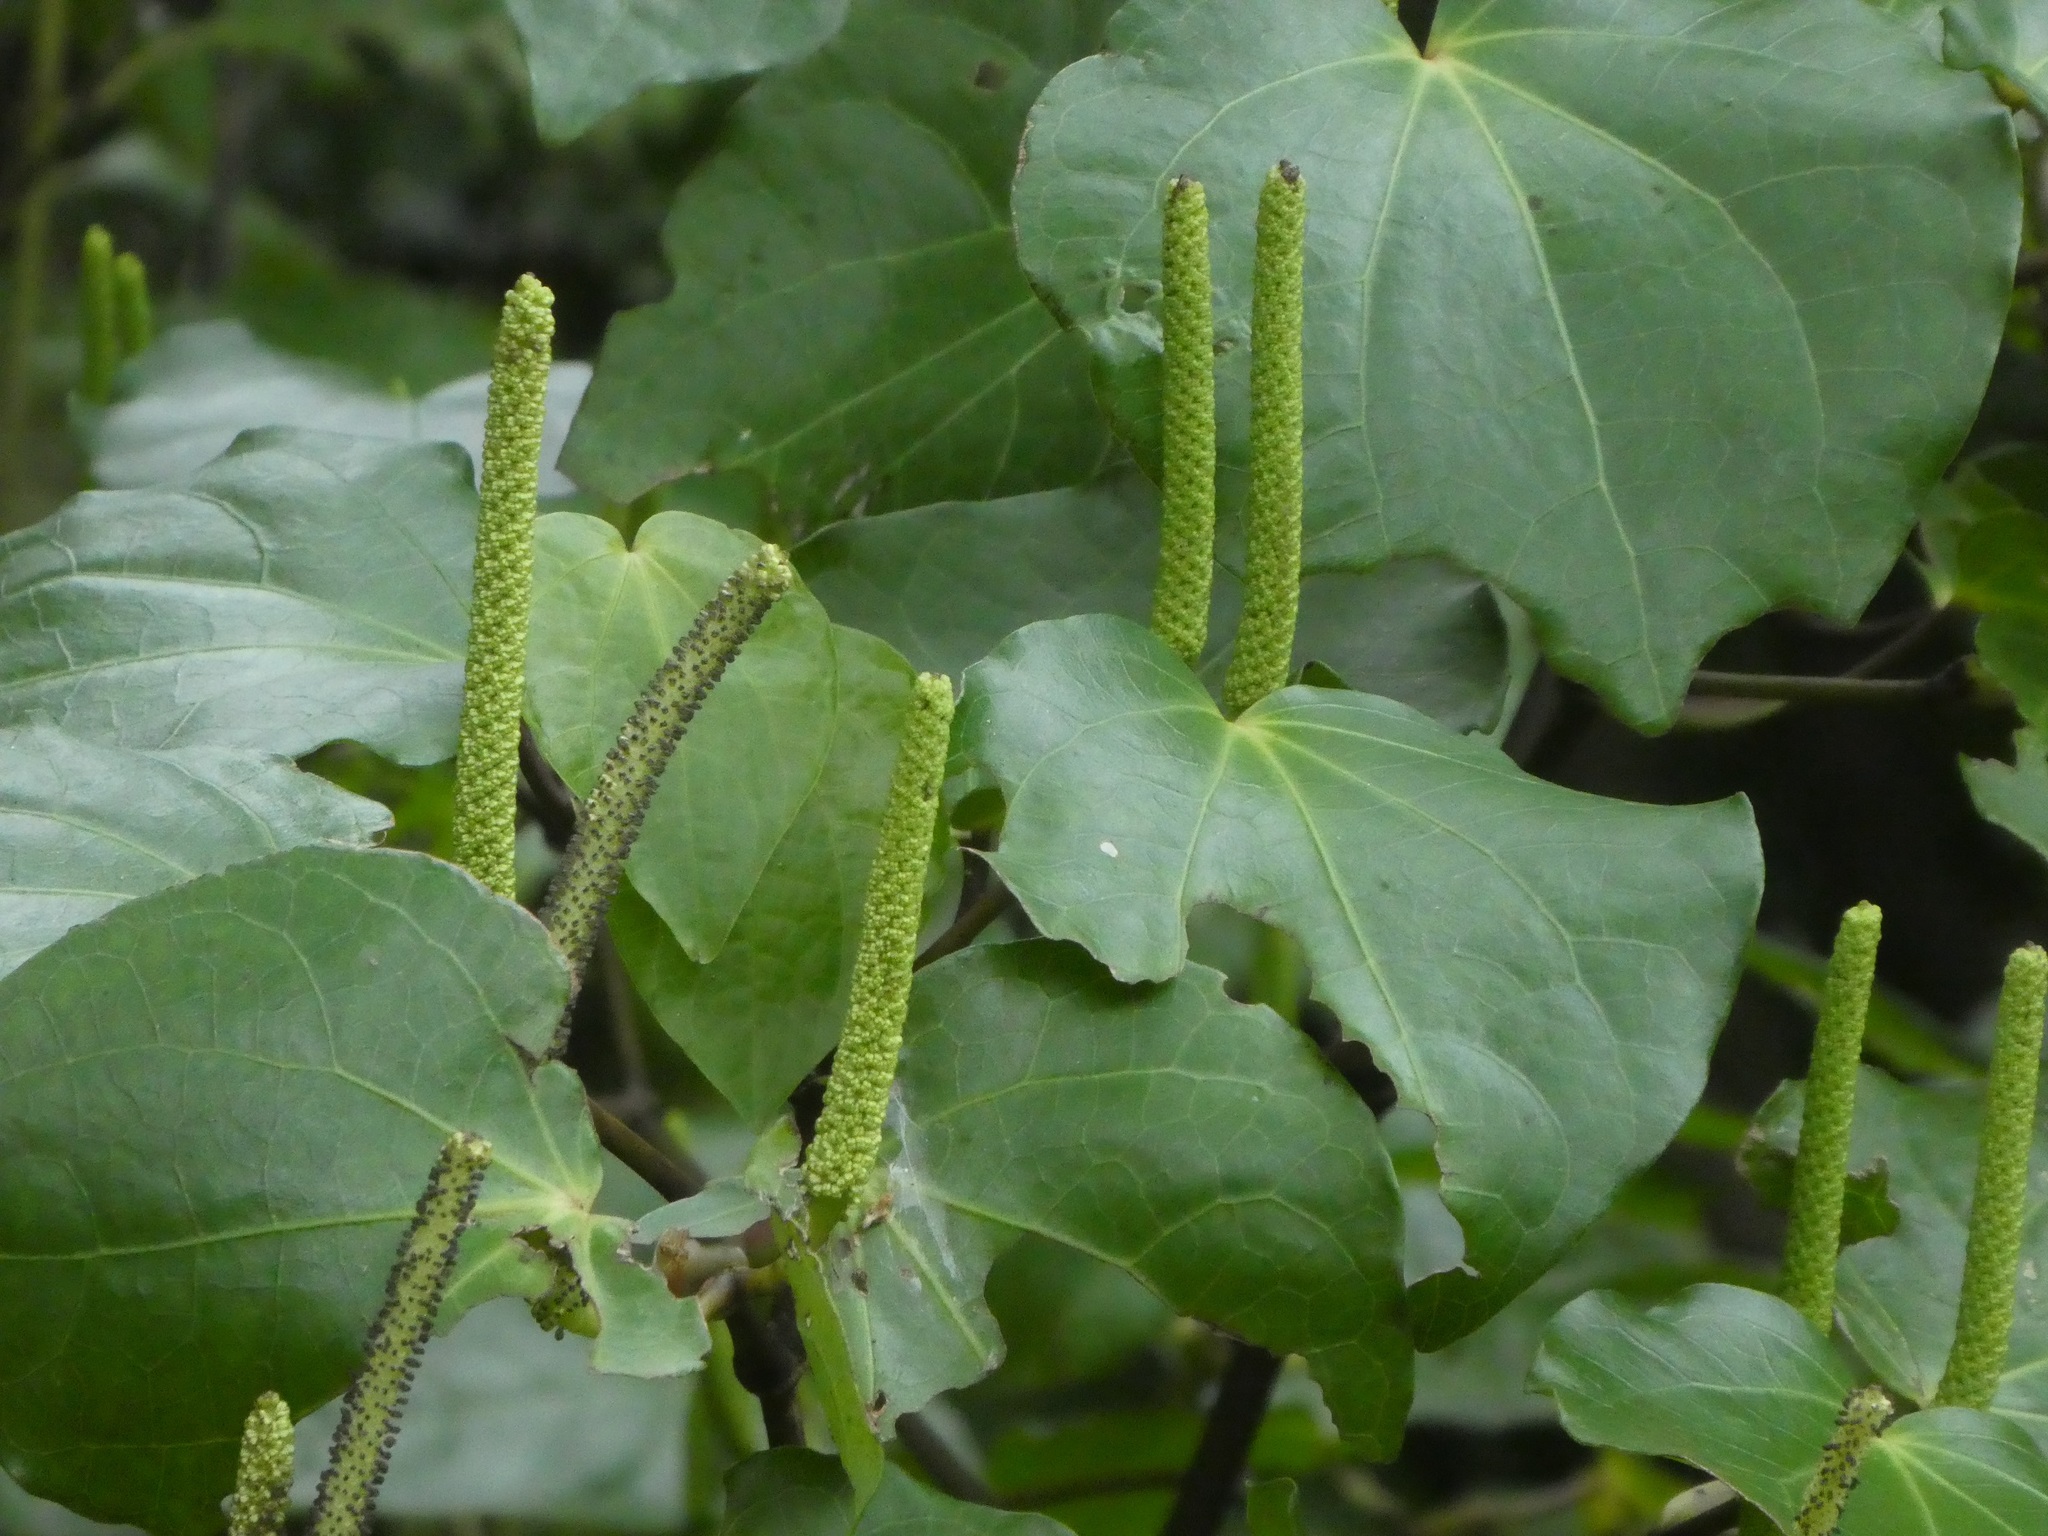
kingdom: Plantae
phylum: Tracheophyta
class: Magnoliopsida
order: Piperales
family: Piperaceae
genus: Macropiper
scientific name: Macropiper excelsum
